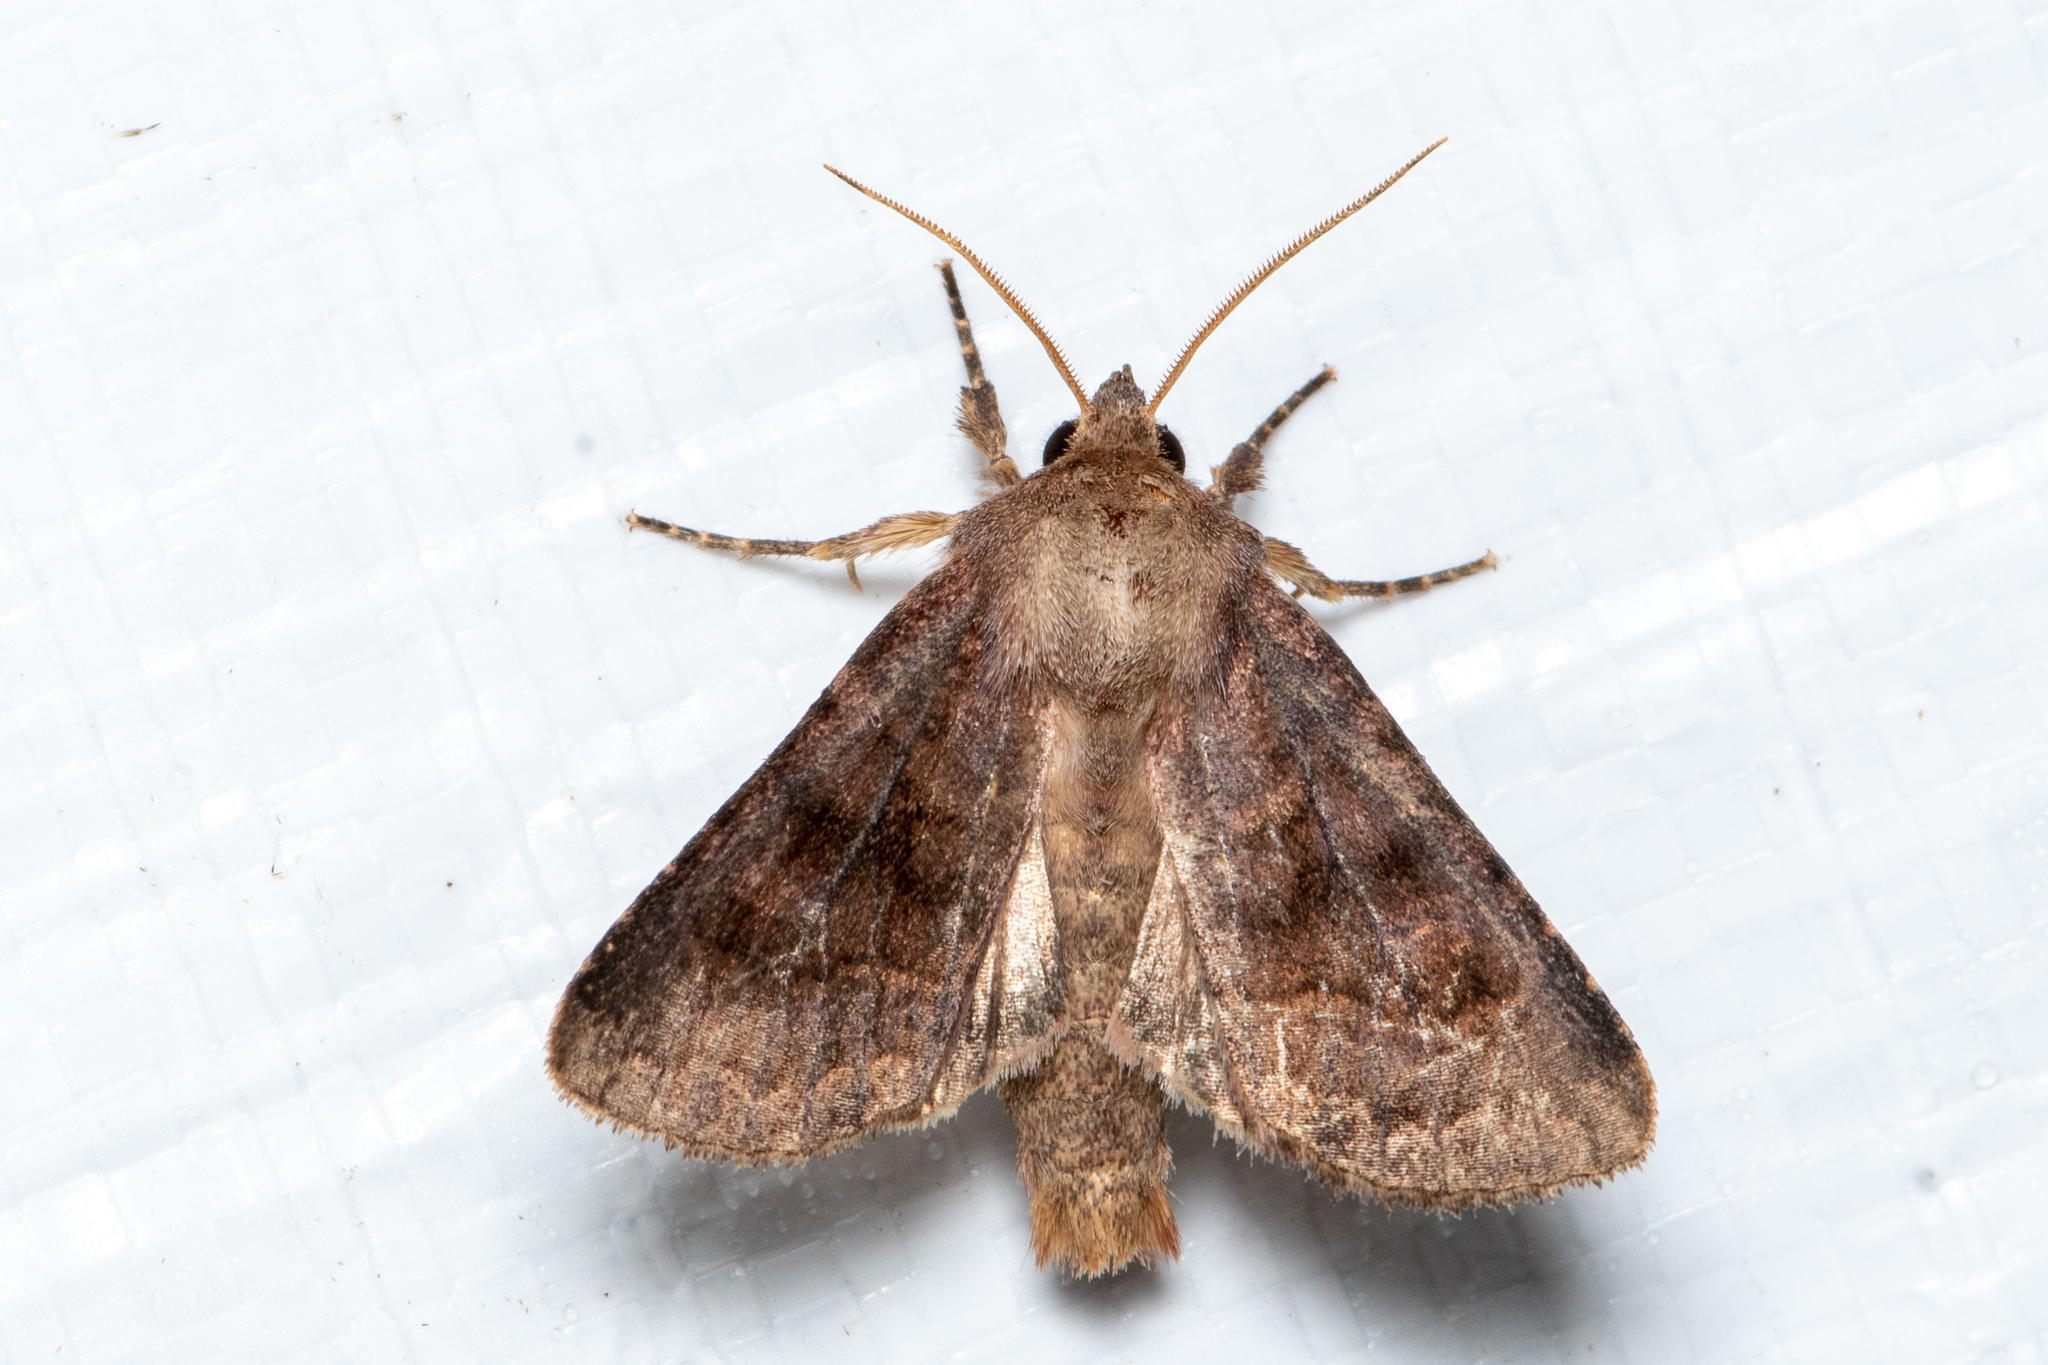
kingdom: Animalia
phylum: Arthropoda
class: Insecta
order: Lepidoptera
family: Noctuidae
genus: Nephelodes
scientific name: Nephelodes minians
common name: Bronzed cutworm
